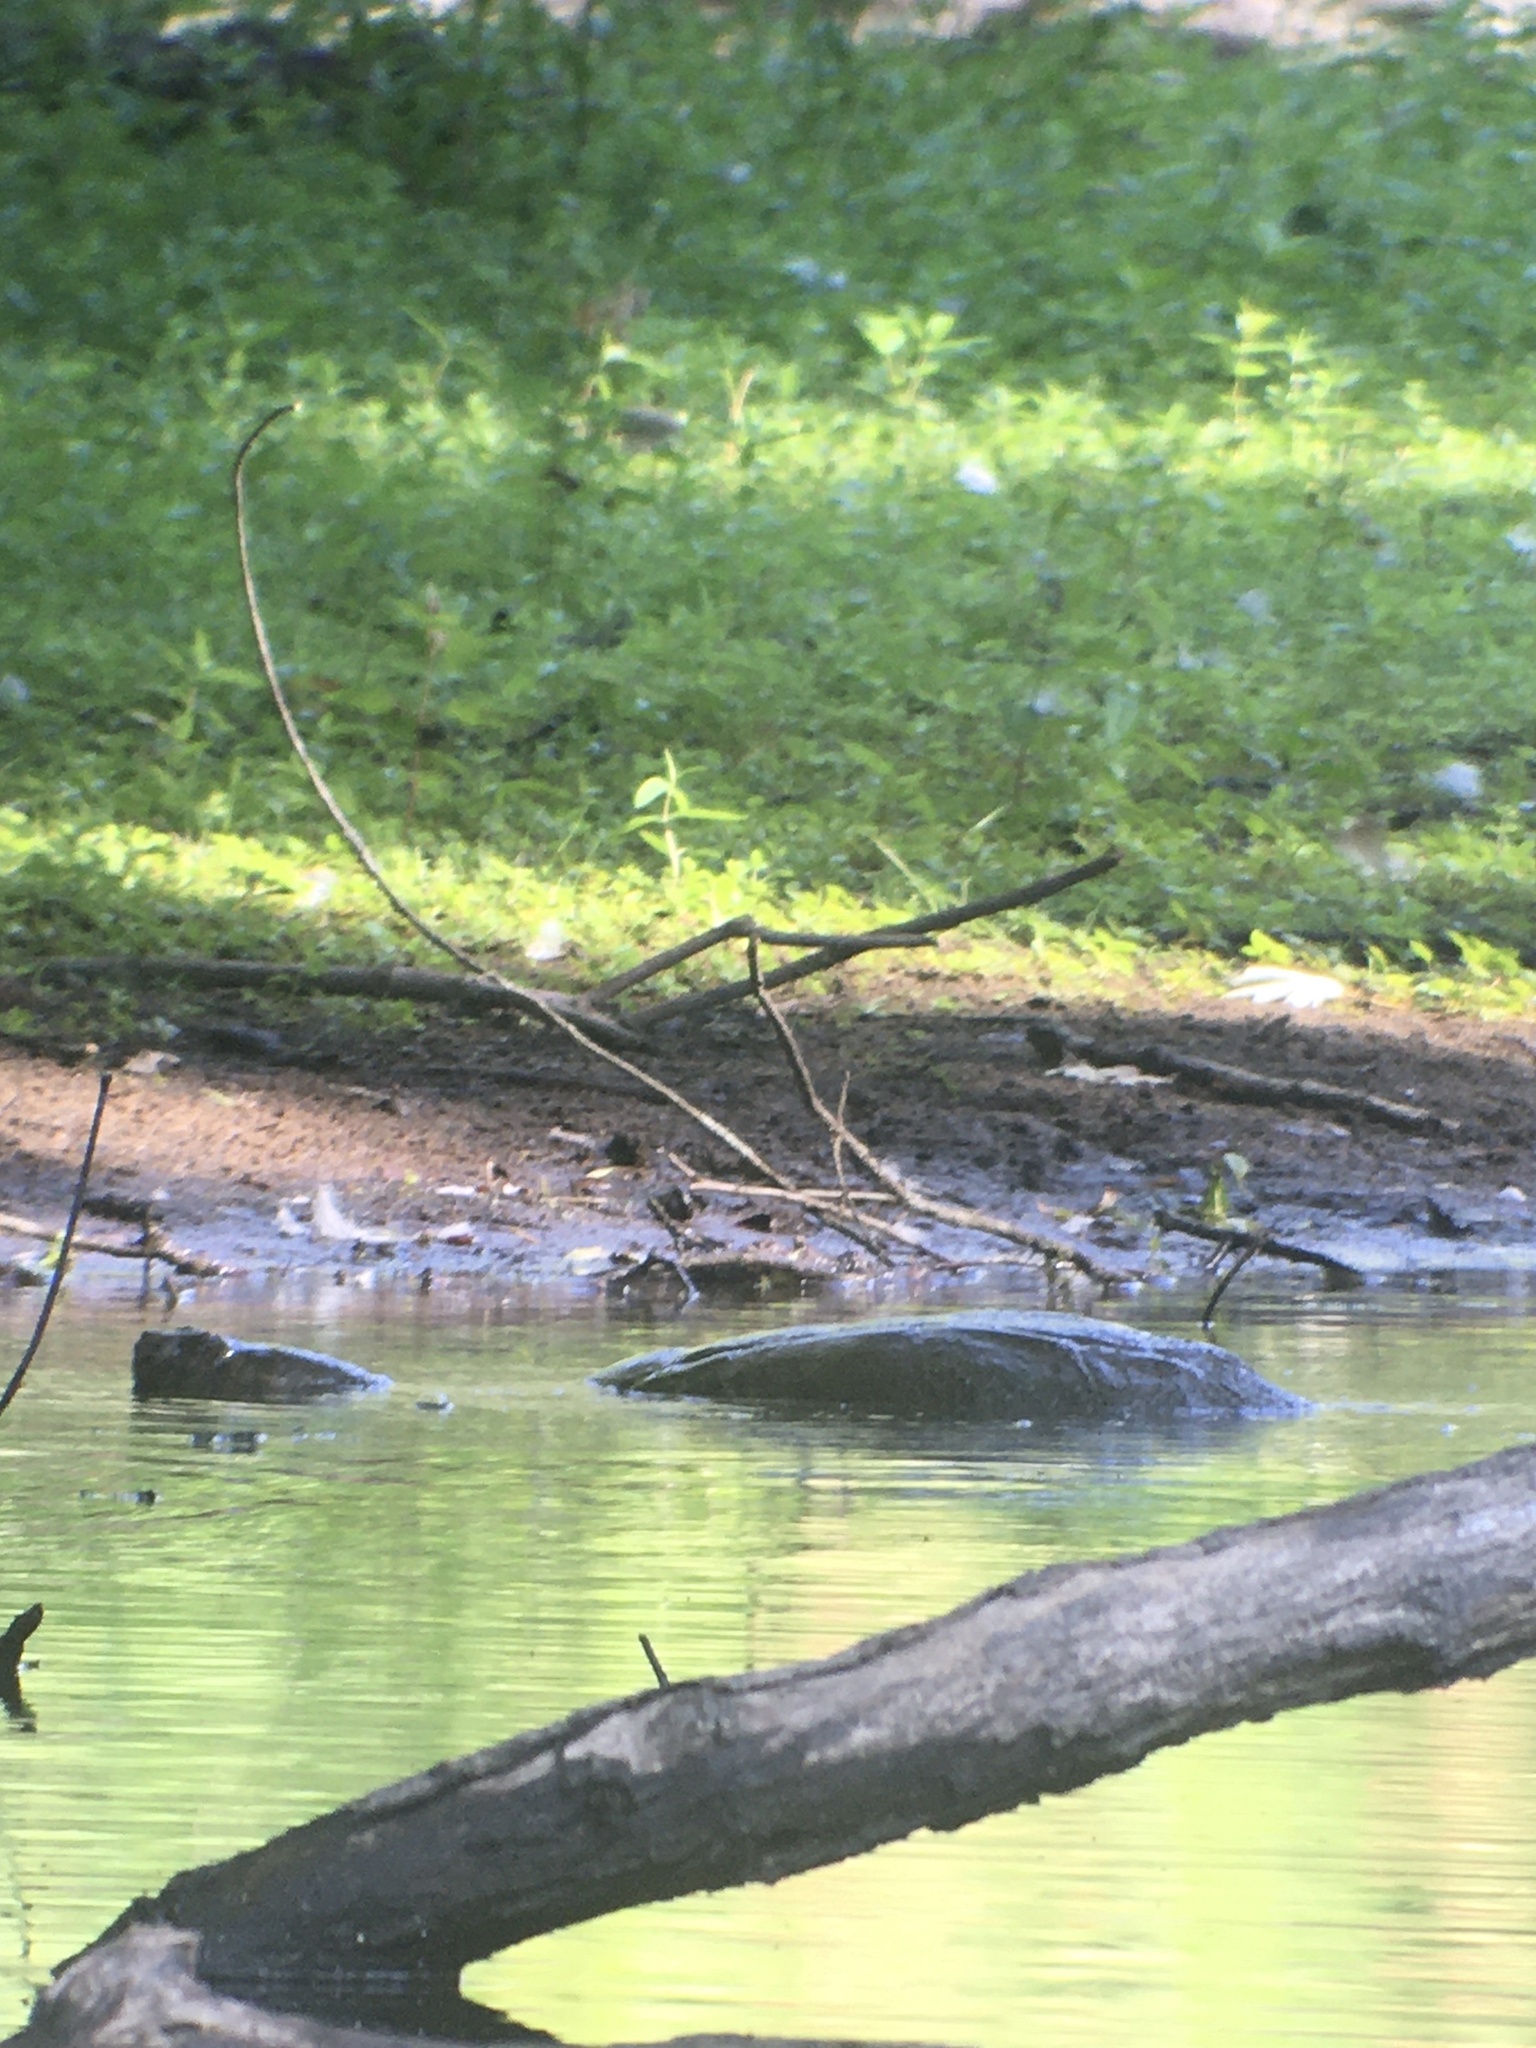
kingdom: Animalia
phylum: Chordata
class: Testudines
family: Chelydridae
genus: Chelydra
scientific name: Chelydra serpentina
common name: Common snapping turtle
